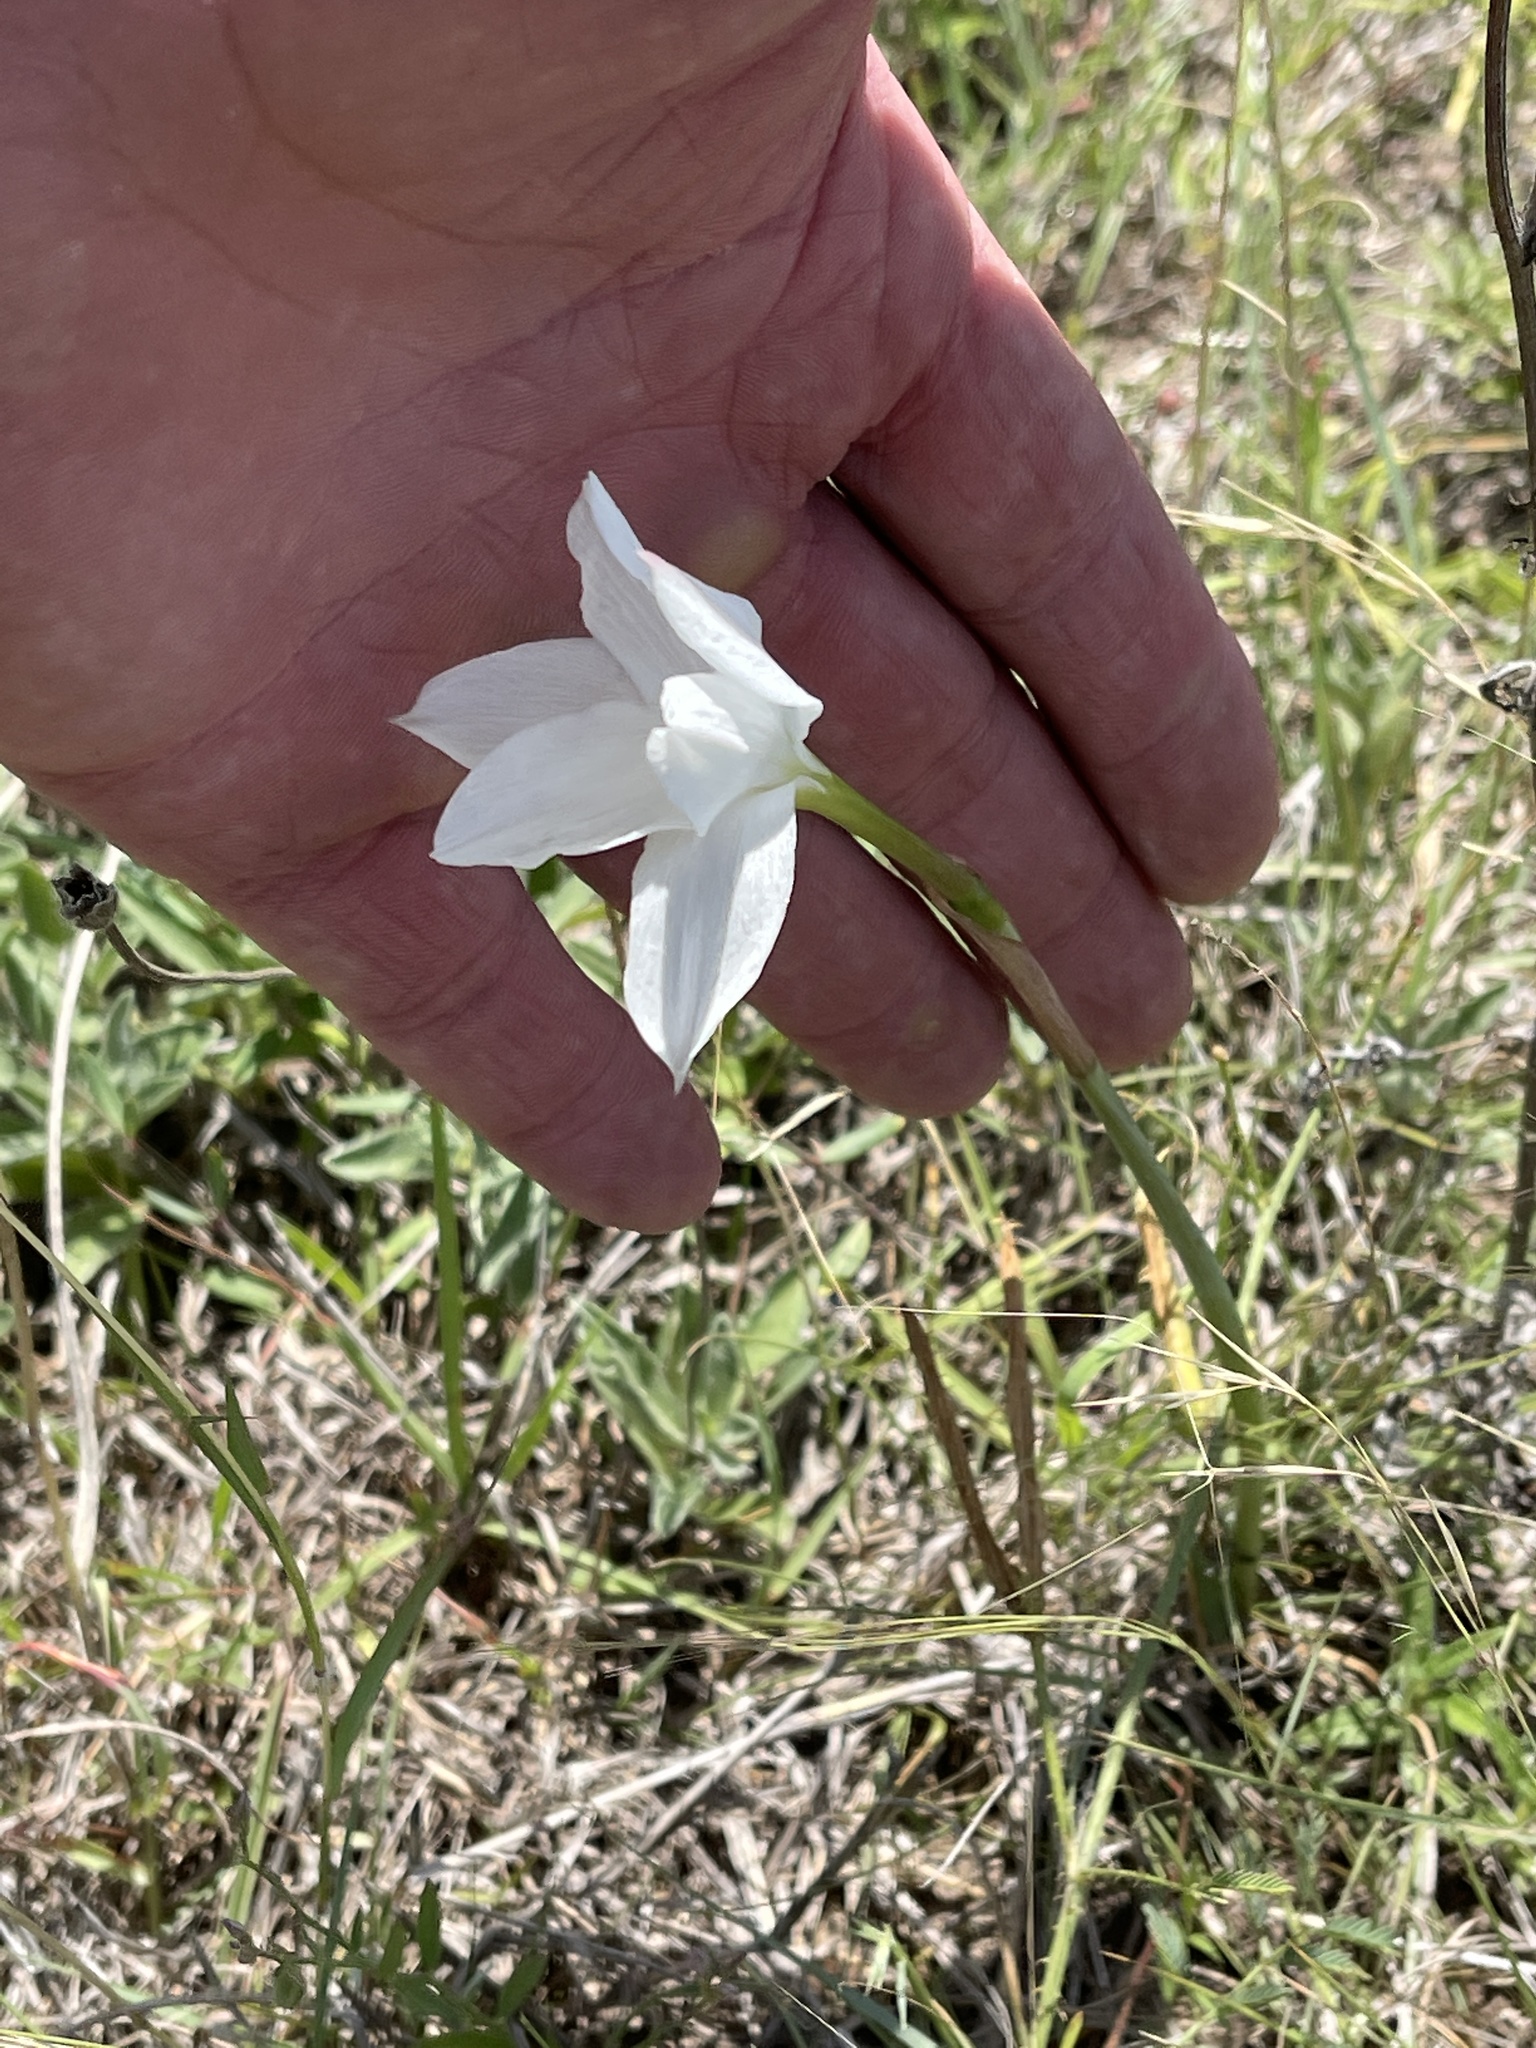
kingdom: Plantae
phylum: Tracheophyta
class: Liliopsida
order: Asparagales
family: Amaryllidaceae
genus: Zephyranthes
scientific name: Zephyranthes drummondii
